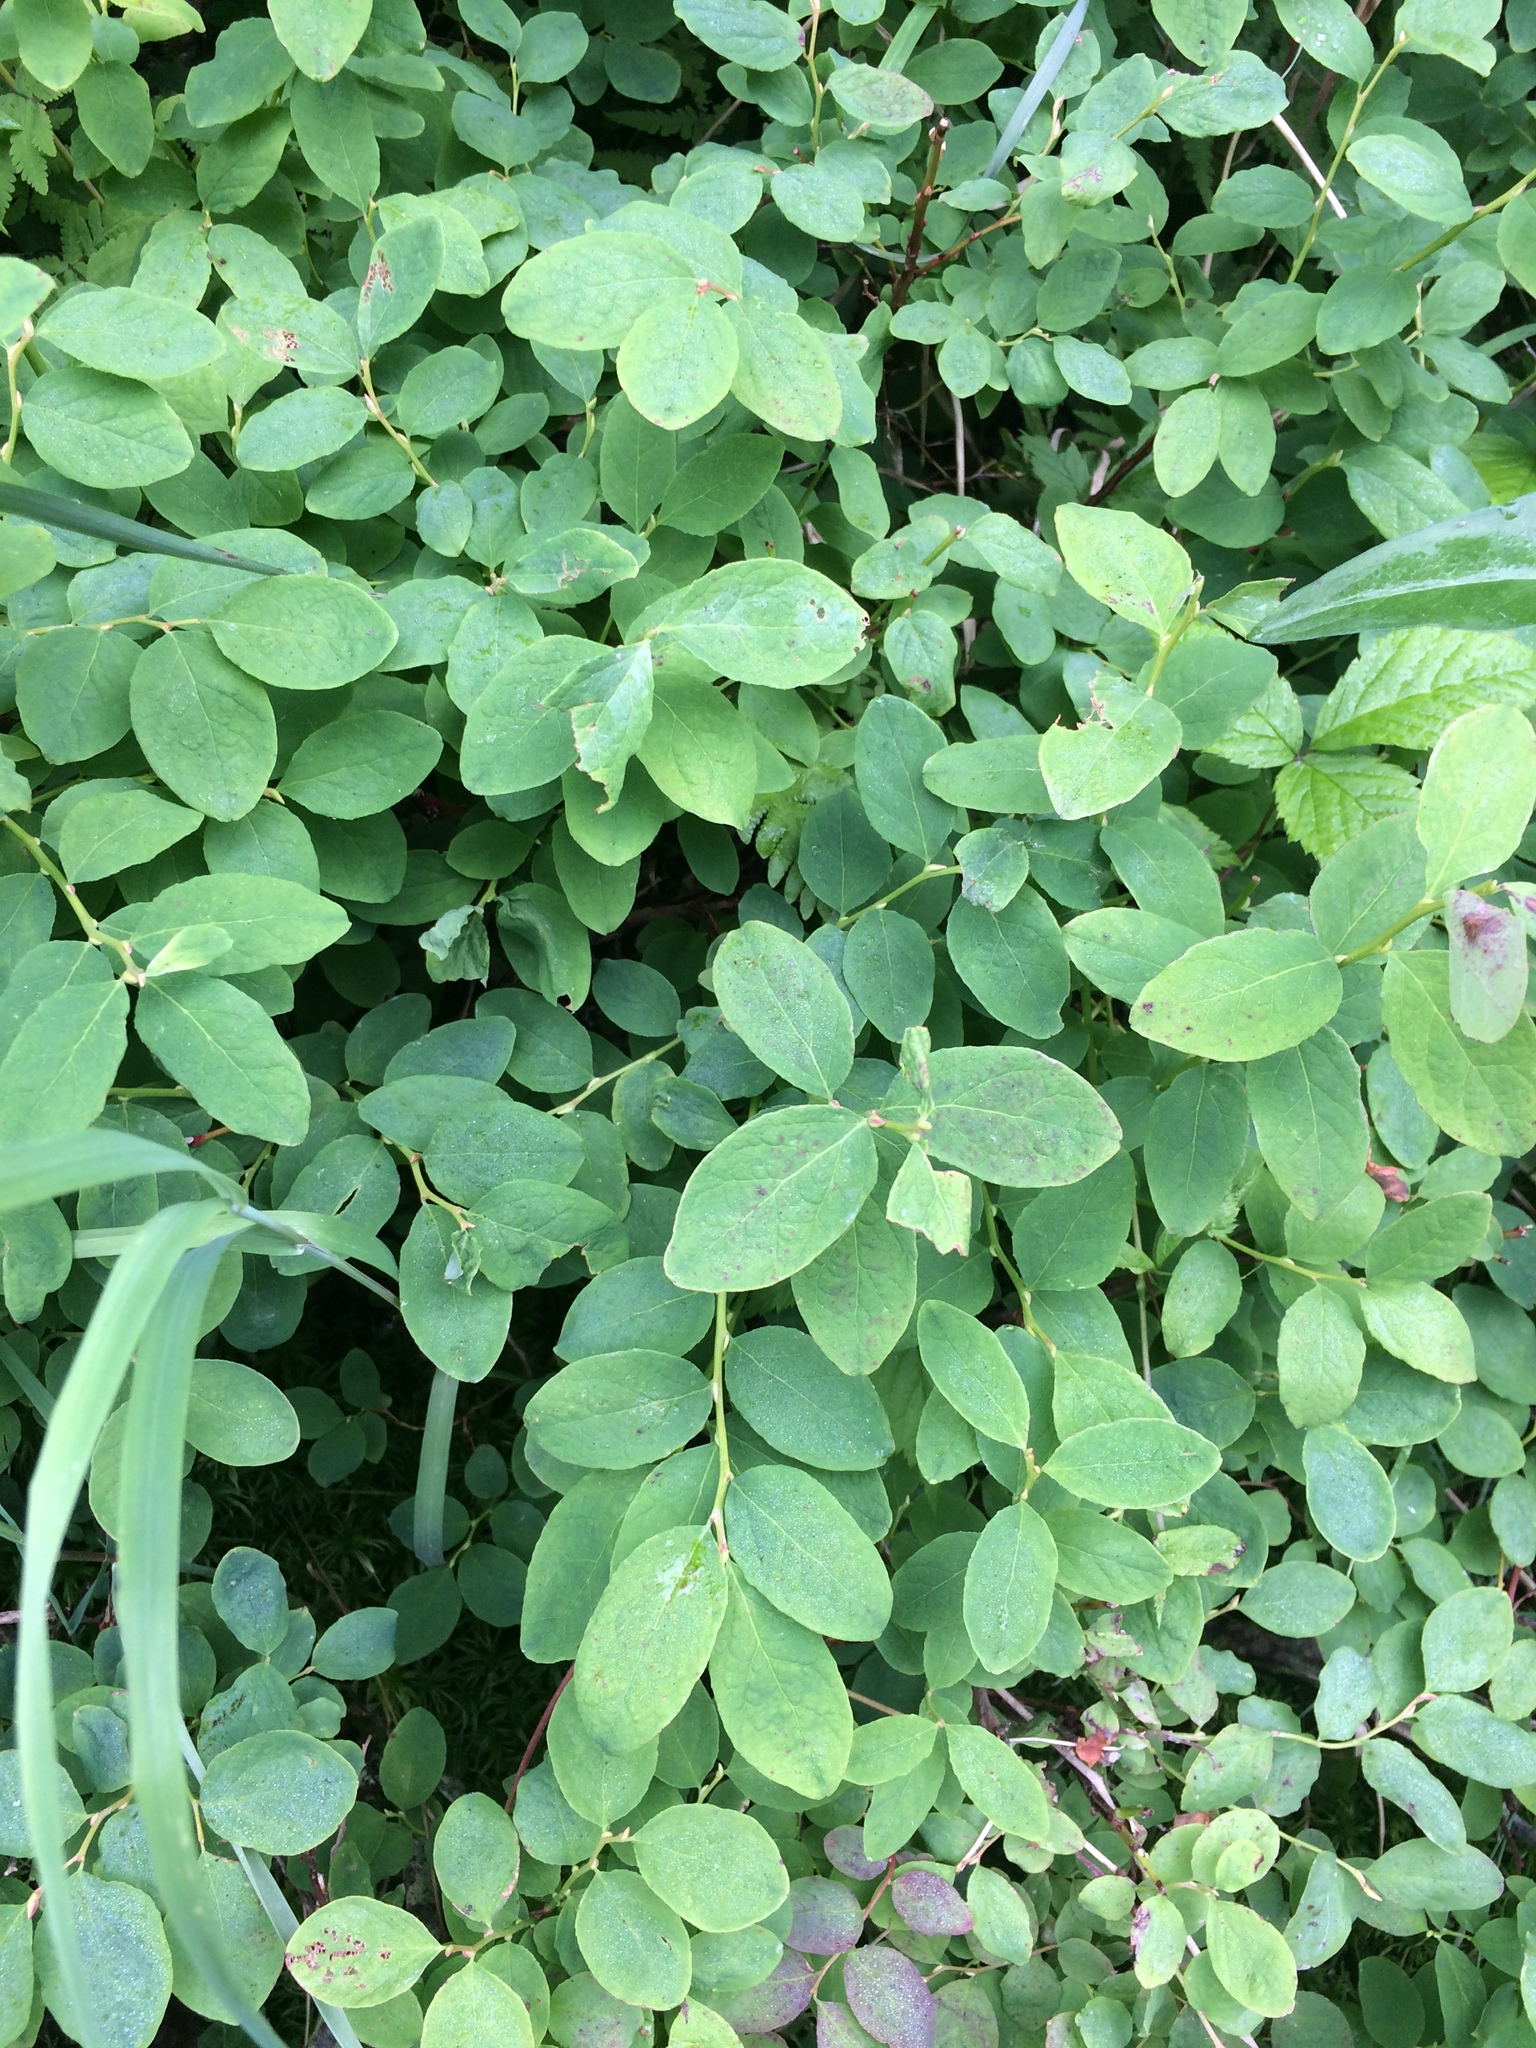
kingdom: Plantae
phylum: Tracheophyta
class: Magnoliopsida
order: Ericales
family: Ericaceae
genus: Vaccinium
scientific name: Vaccinium ovalifolium
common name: Early blueberry
